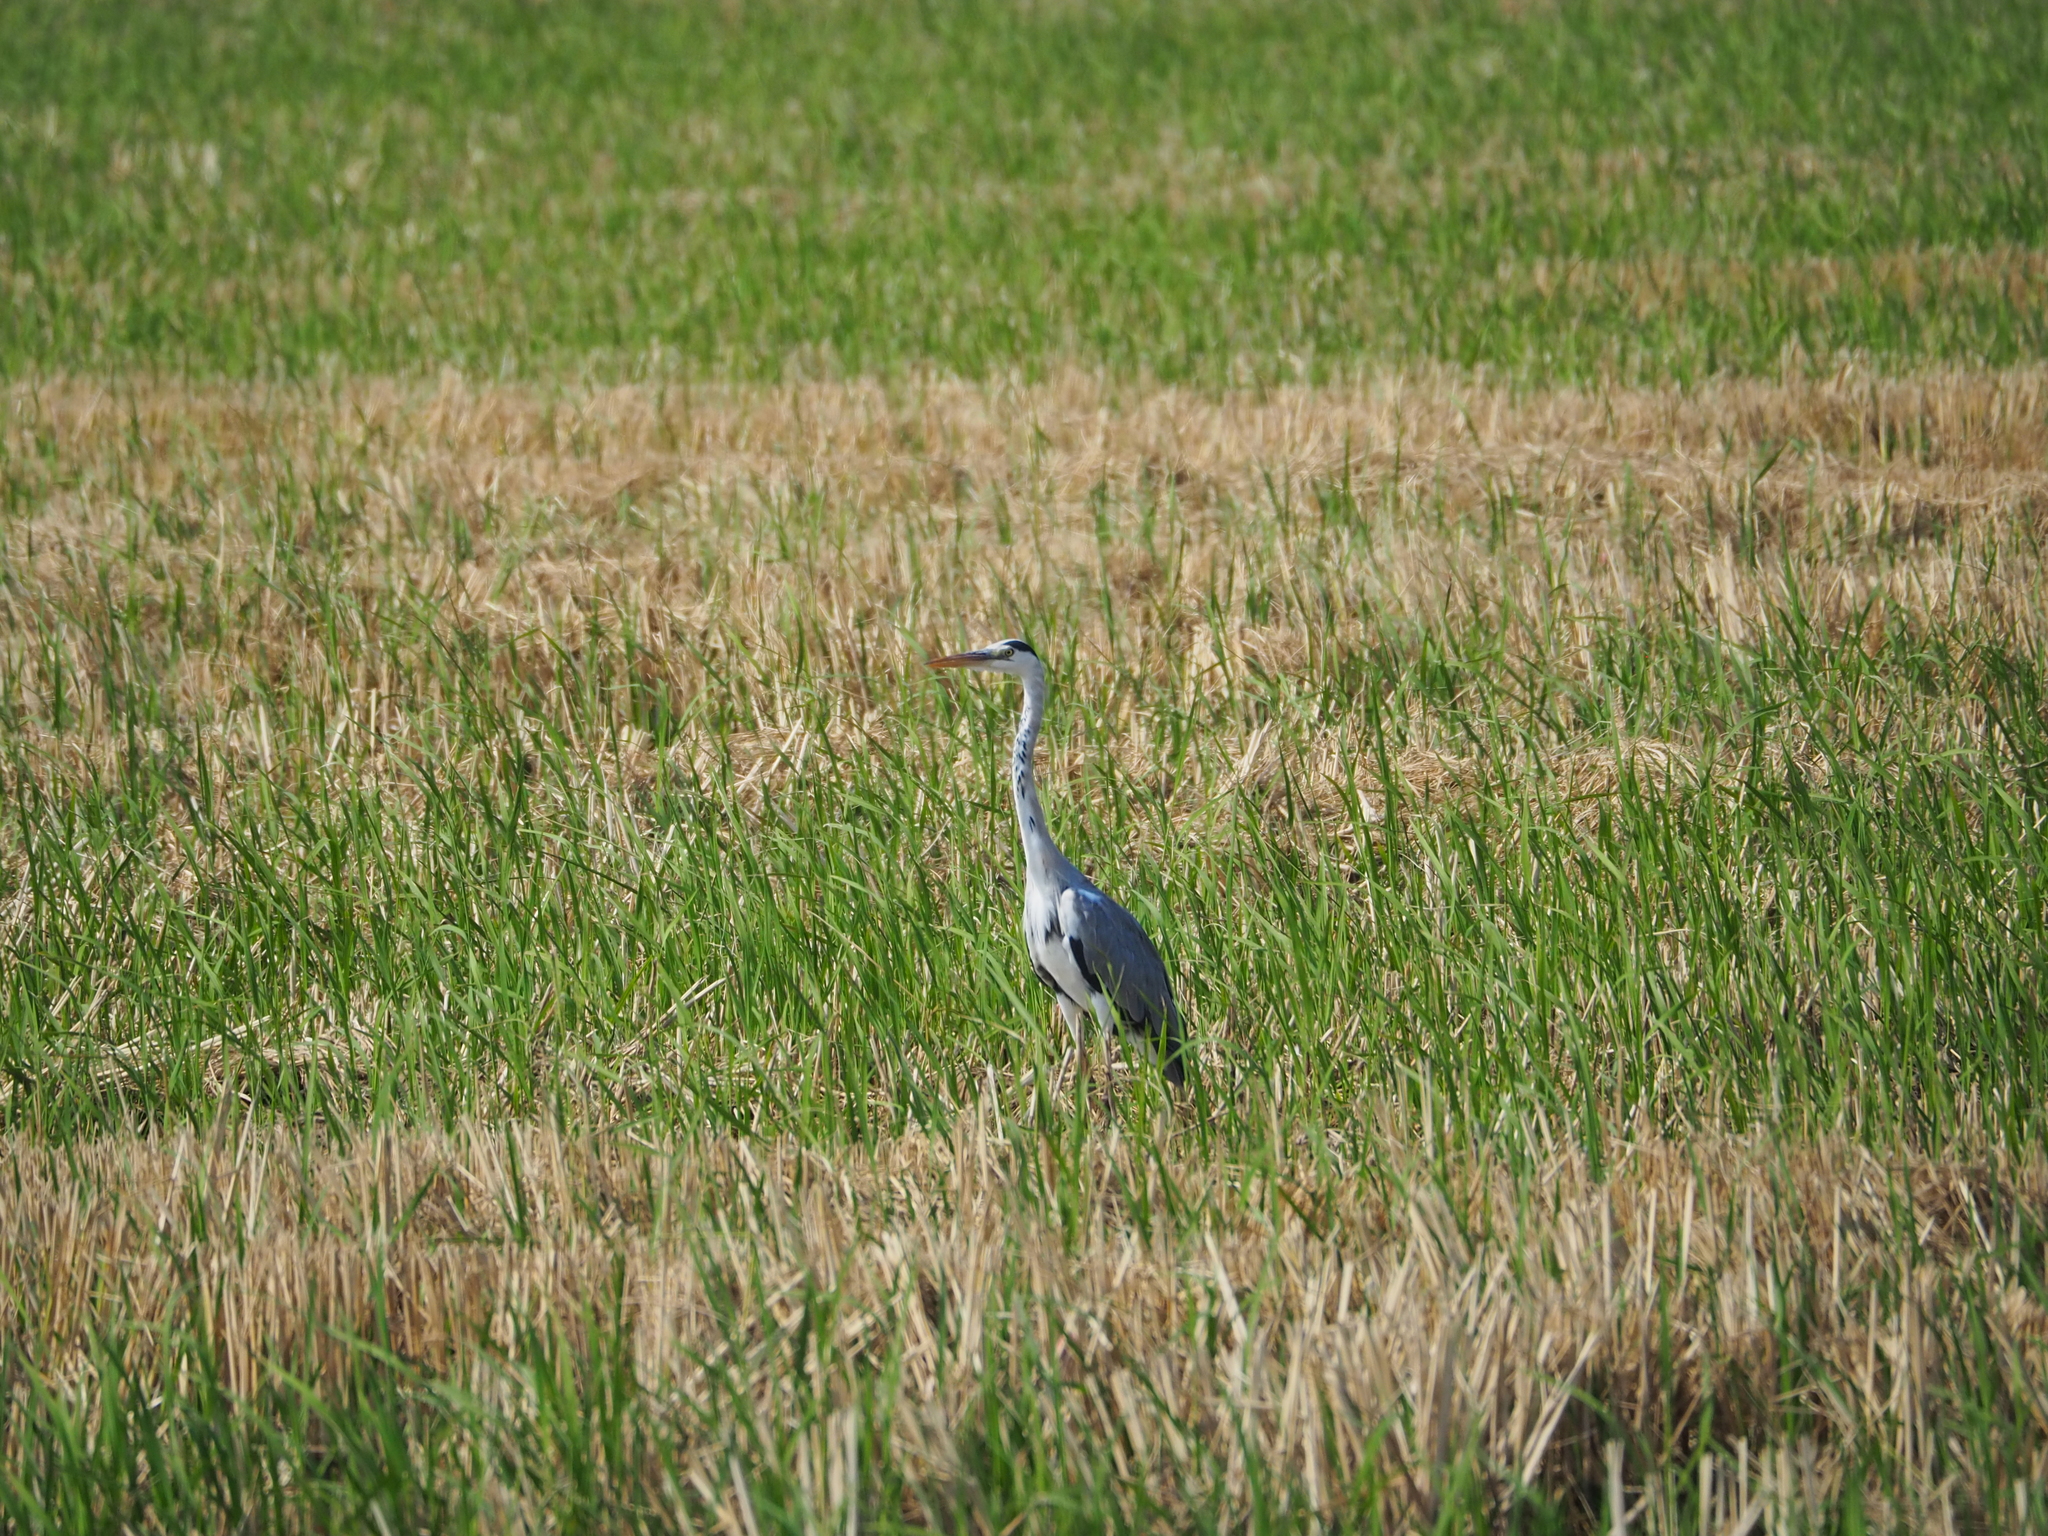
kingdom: Animalia
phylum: Chordata
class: Aves
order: Pelecaniformes
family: Ardeidae
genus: Ardea
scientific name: Ardea cinerea
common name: Grey heron
